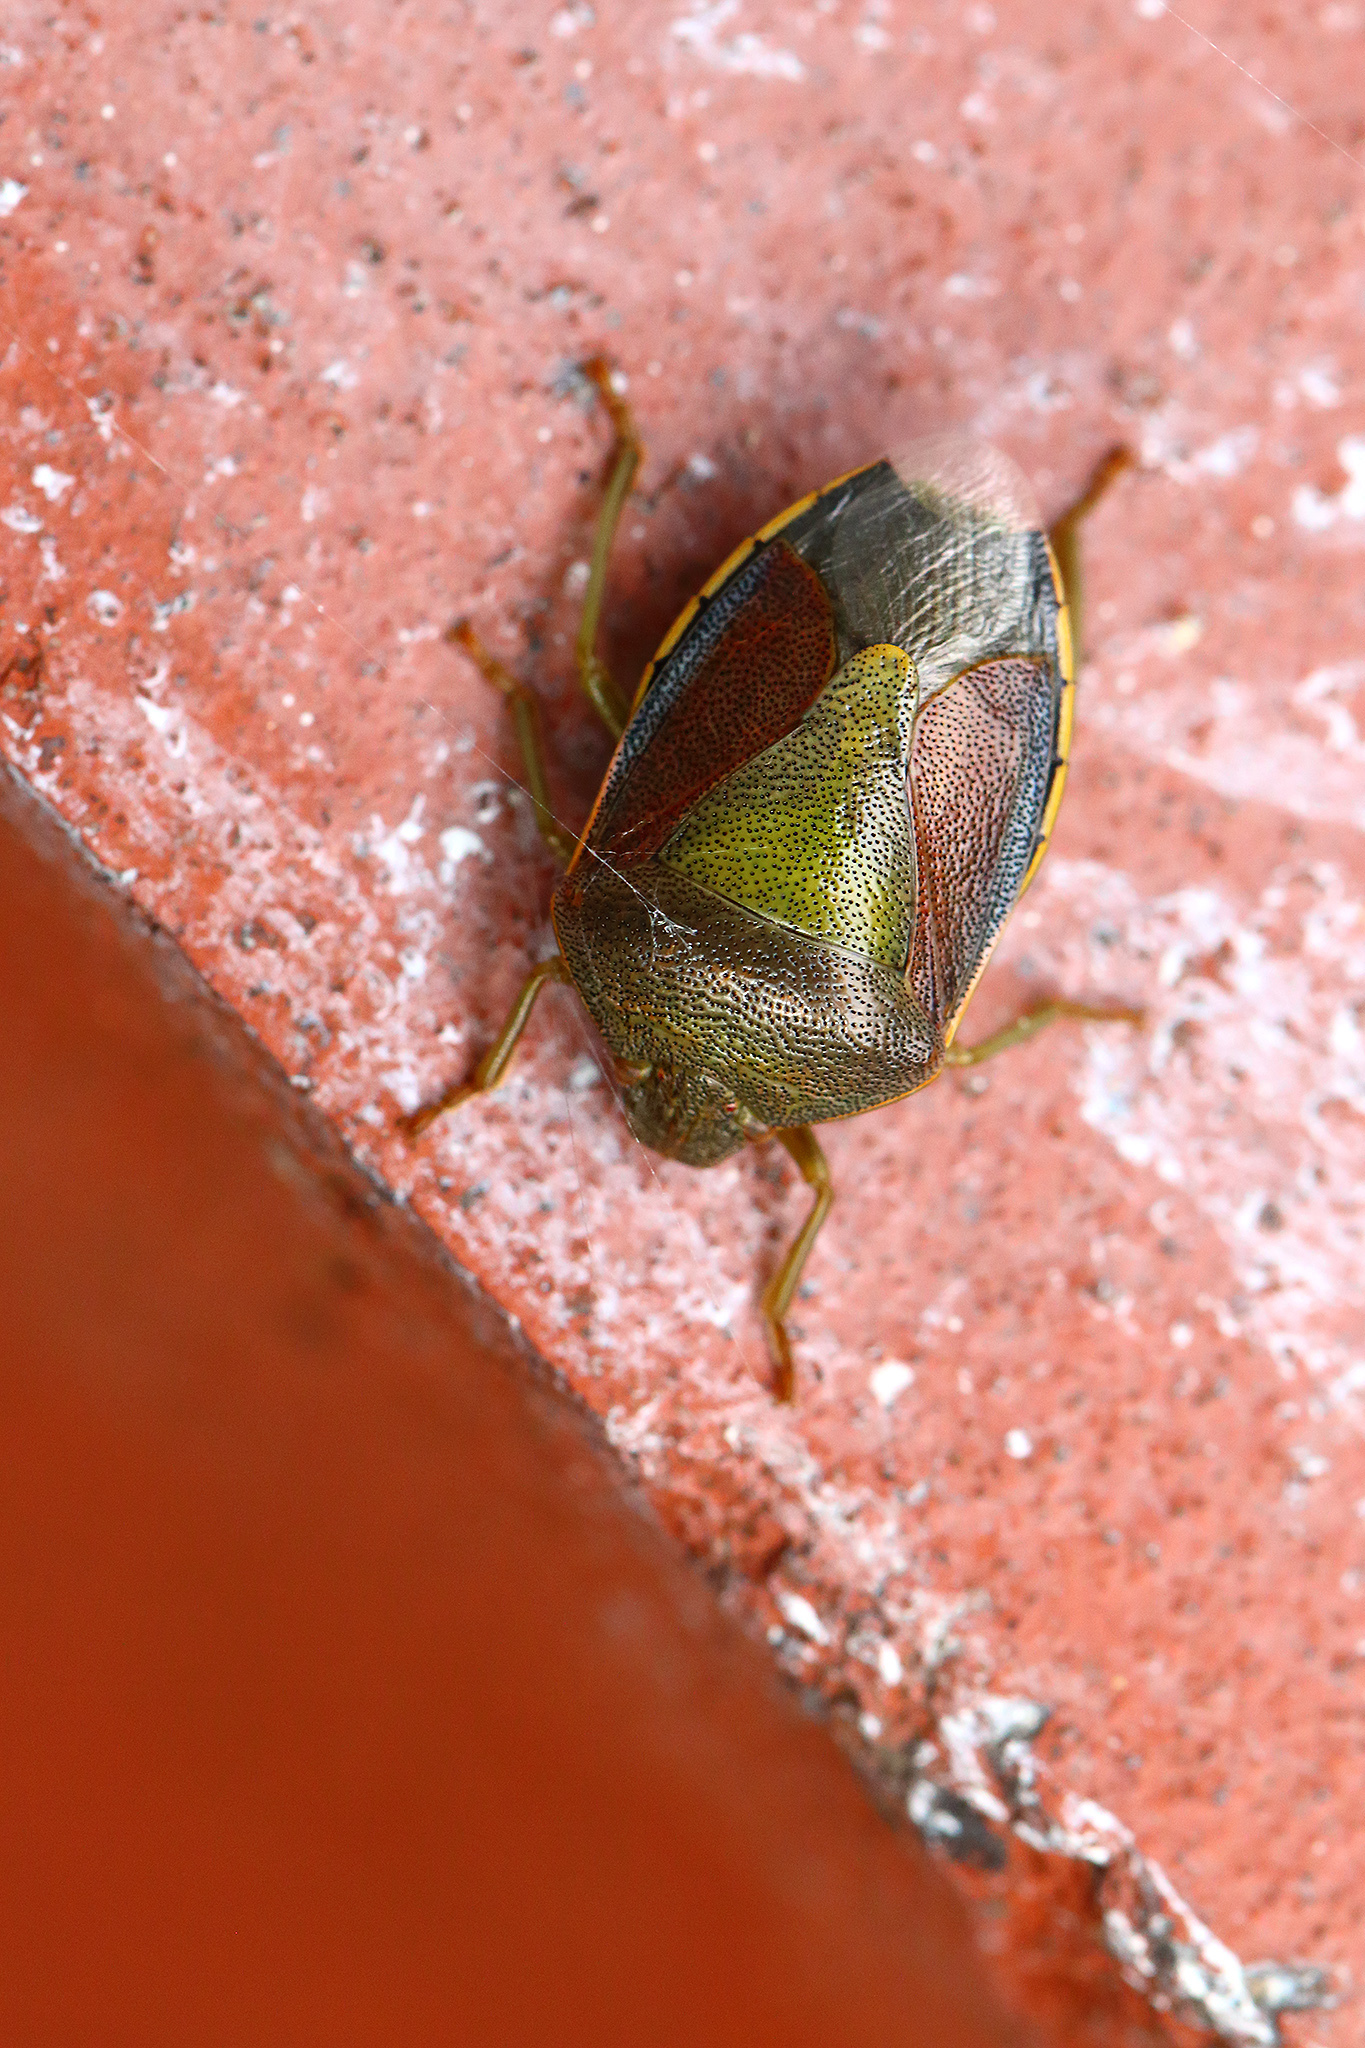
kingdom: Animalia
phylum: Arthropoda
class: Insecta
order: Hemiptera
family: Pentatomidae
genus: Piezodorus
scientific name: Piezodorus lituratus
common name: Stink bug
